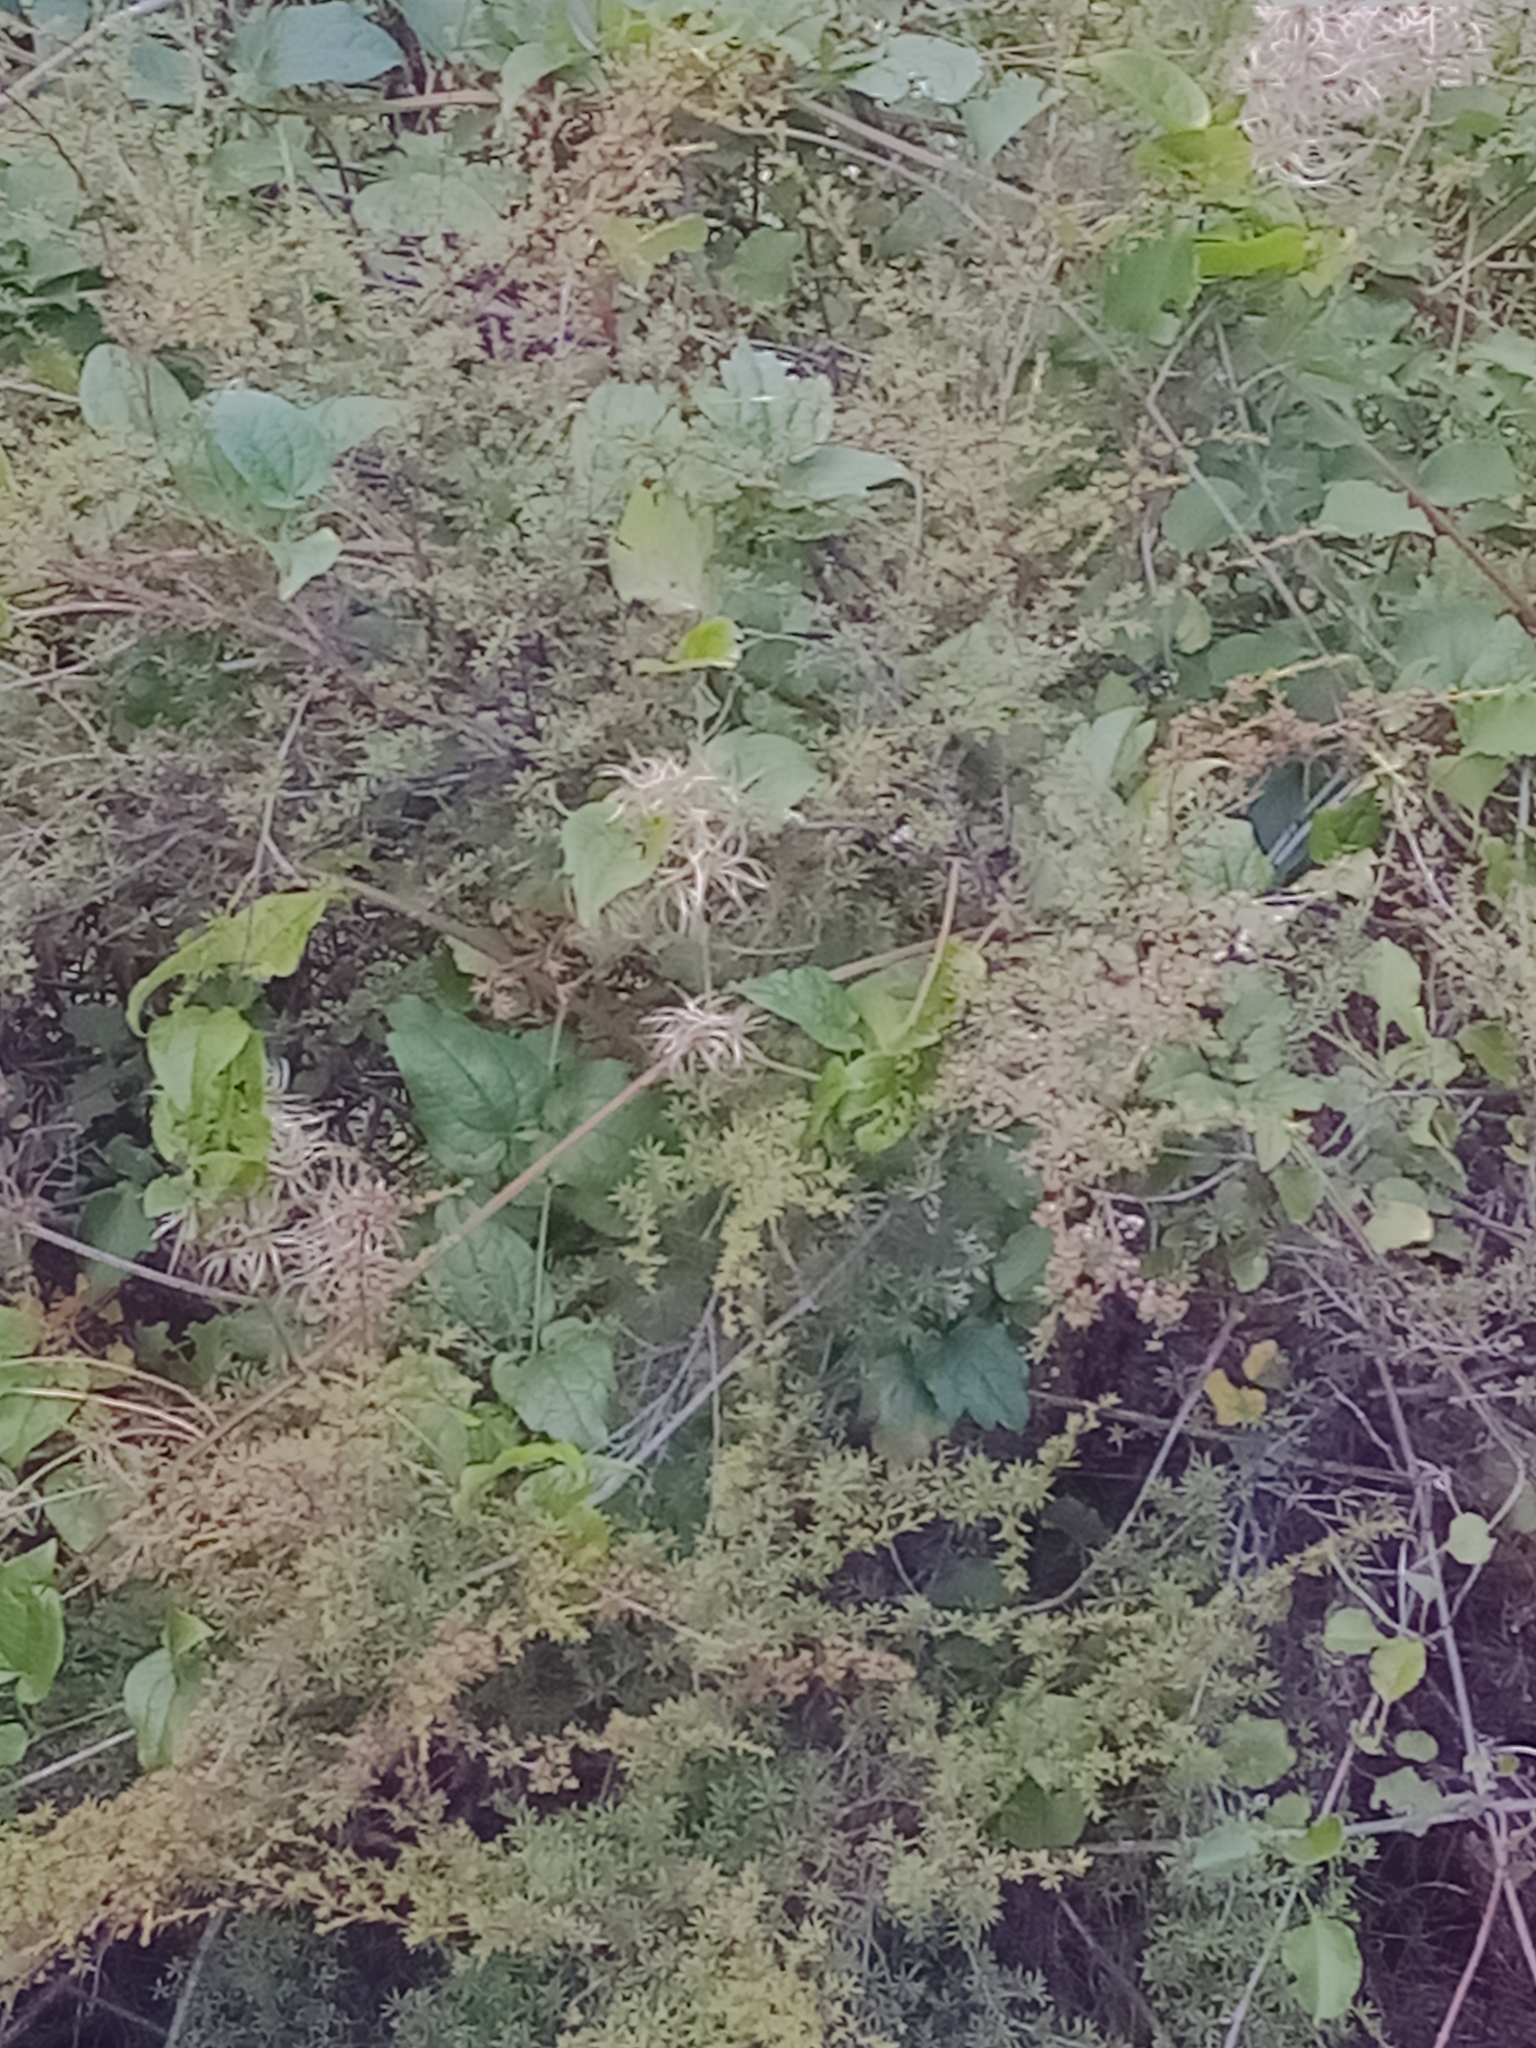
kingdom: Plantae
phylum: Tracheophyta
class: Magnoliopsida
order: Ranunculales
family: Ranunculaceae
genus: Clematis
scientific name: Clematis vitalba
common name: Evergreen clematis
